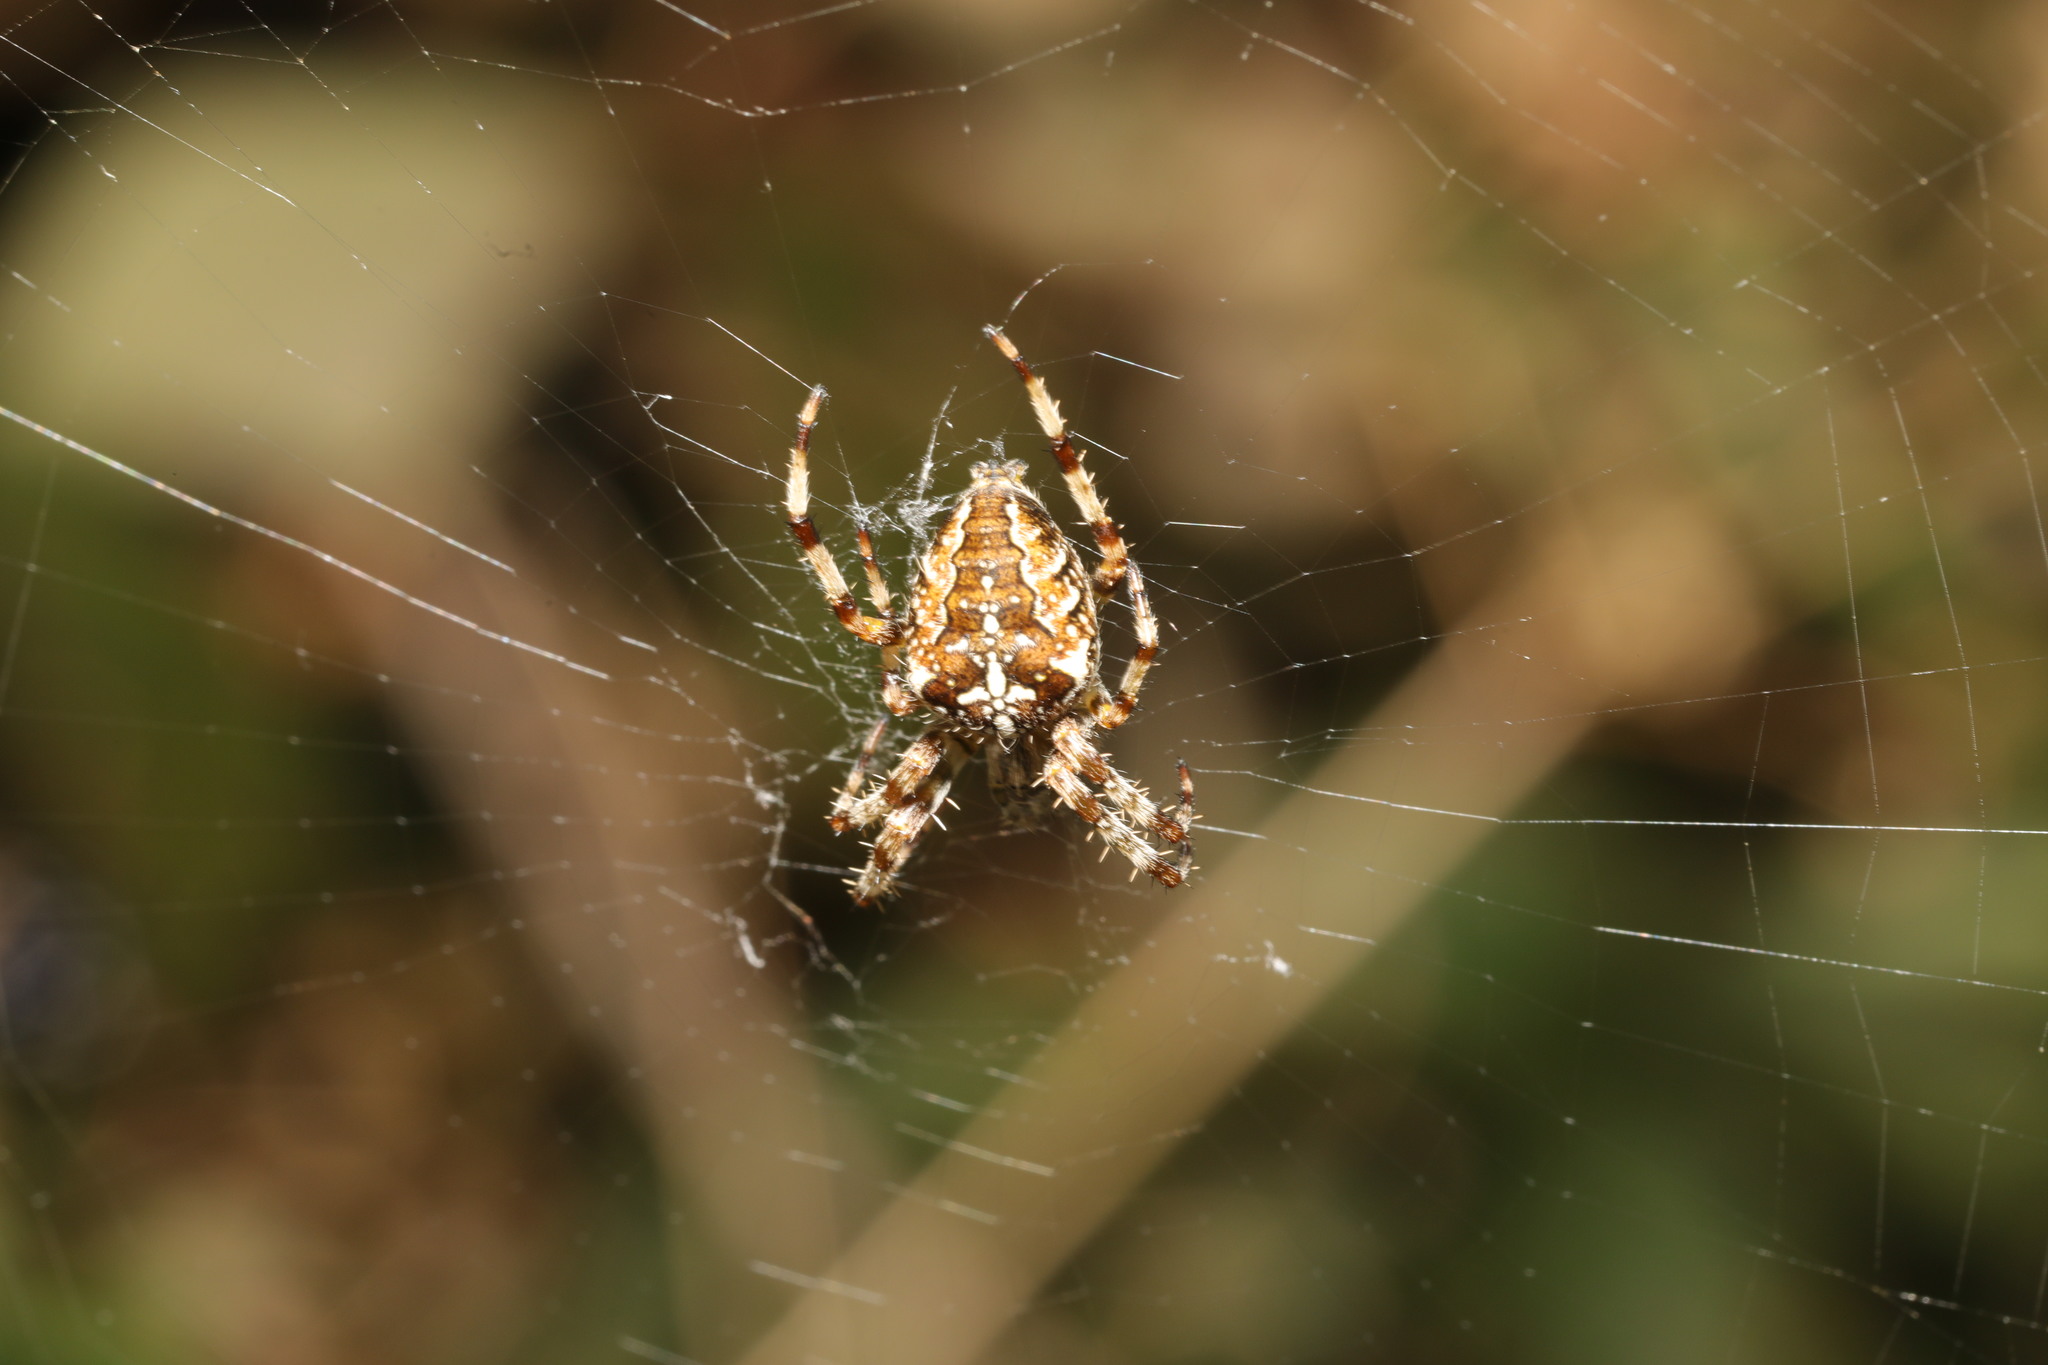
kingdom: Animalia
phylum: Arthropoda
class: Arachnida
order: Araneae
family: Araneidae
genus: Araneus
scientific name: Araneus diadematus
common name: Cross orbweaver
